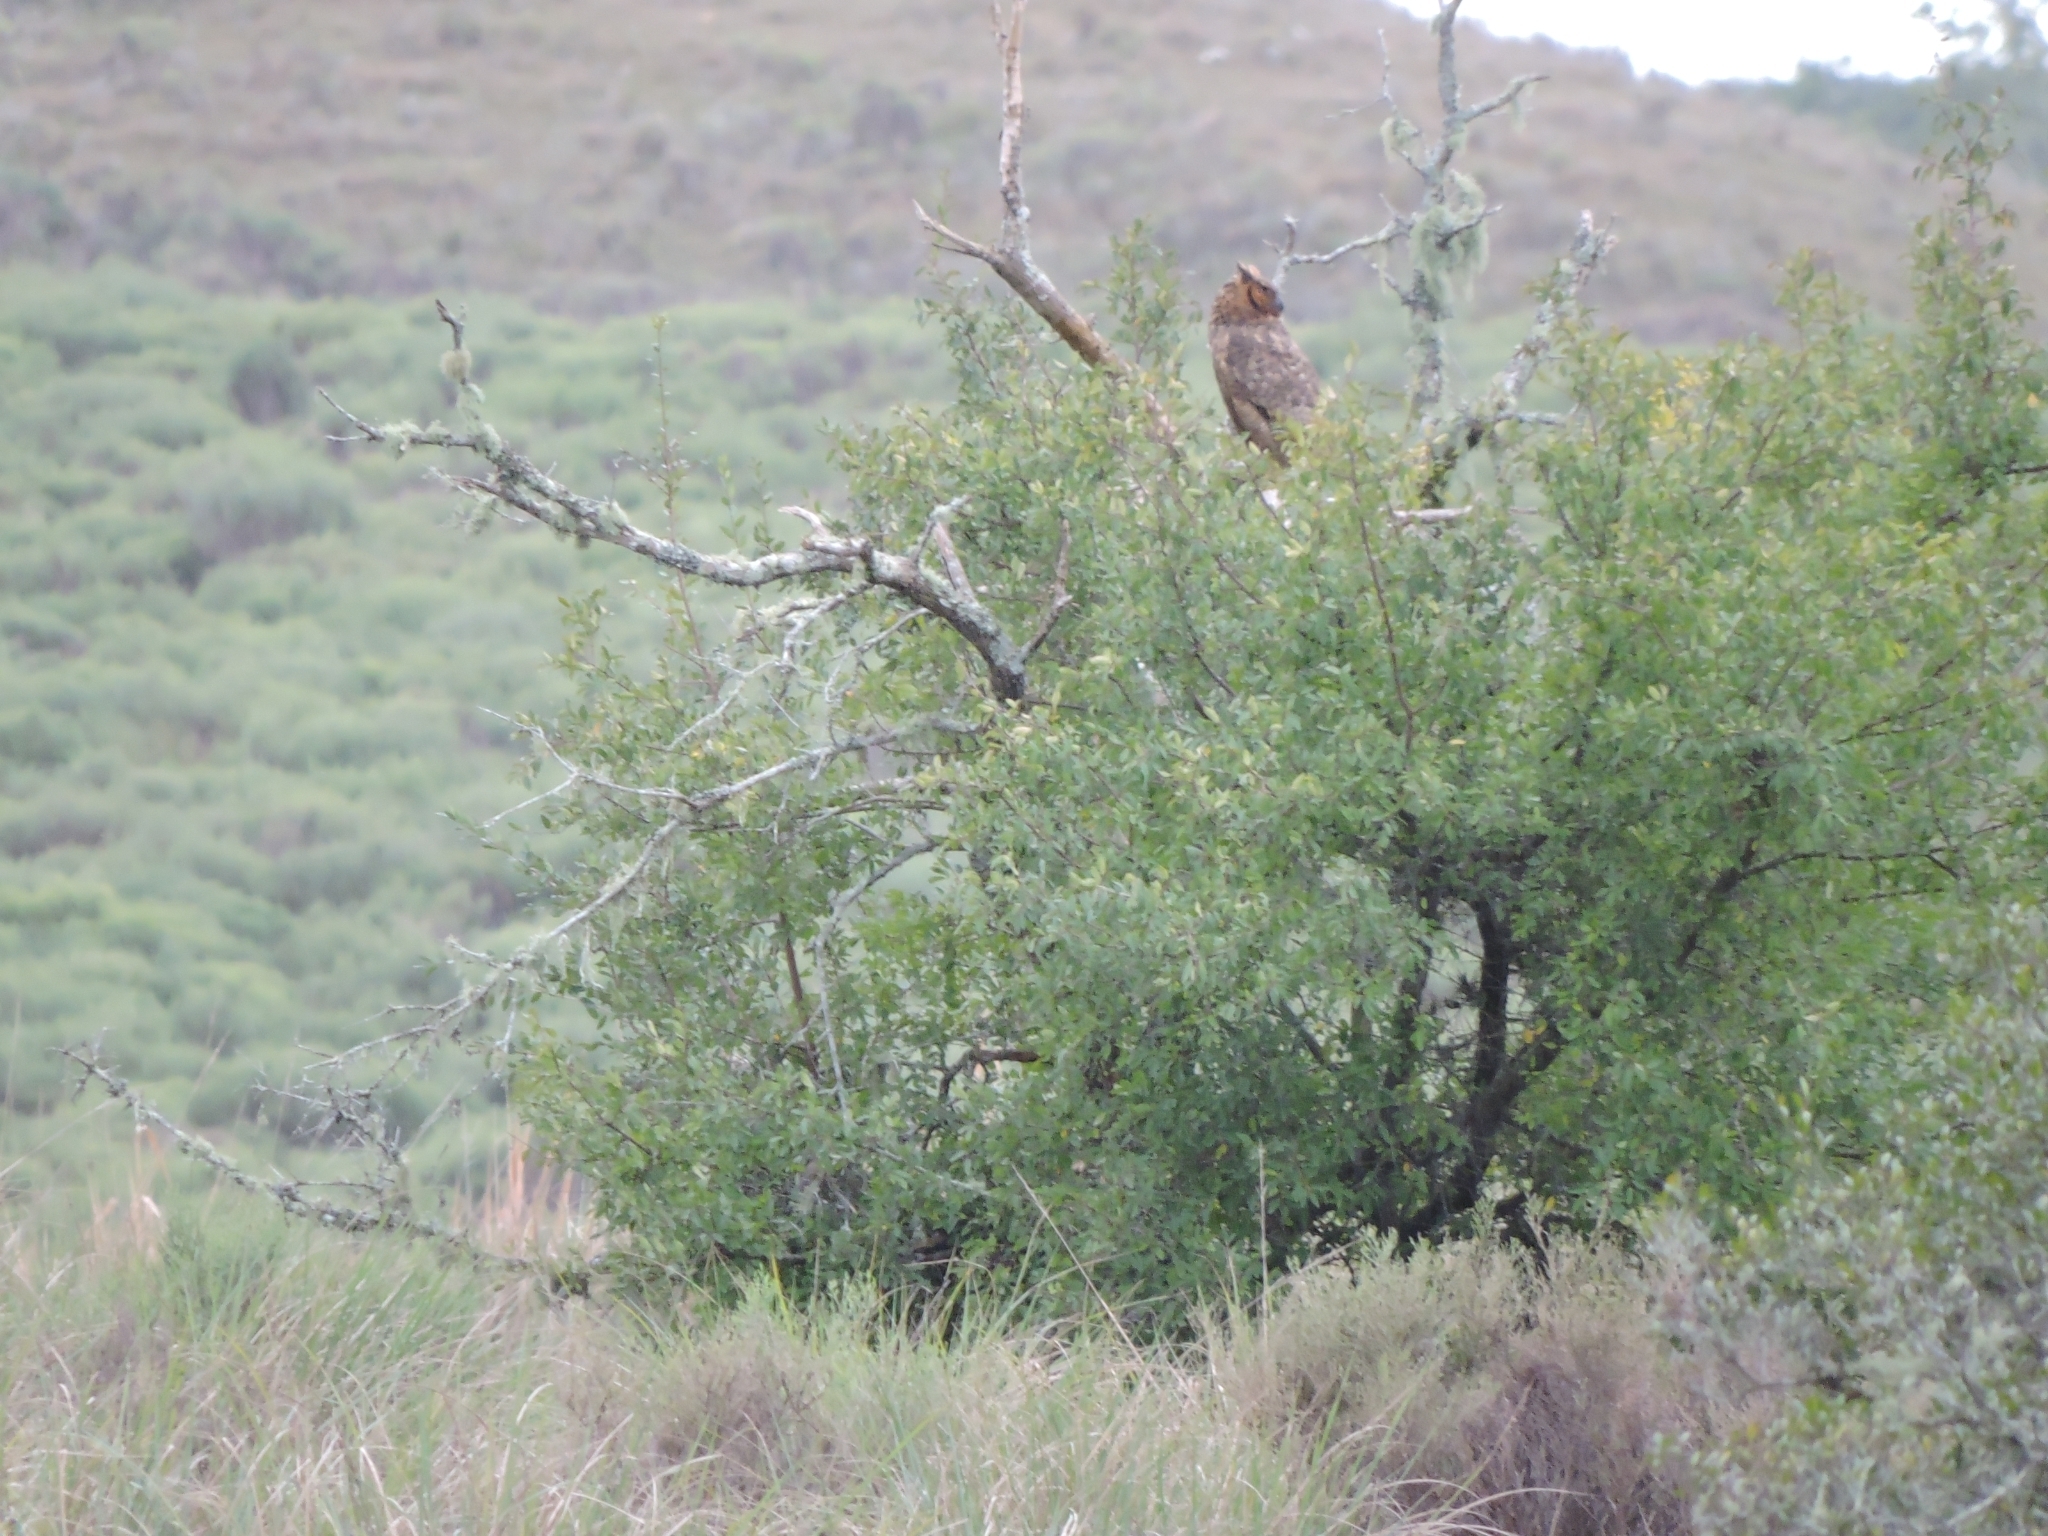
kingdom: Animalia
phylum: Chordata
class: Aves
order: Strigiformes
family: Strigidae
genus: Bubo
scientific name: Bubo virginianus
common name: Great horned owl
